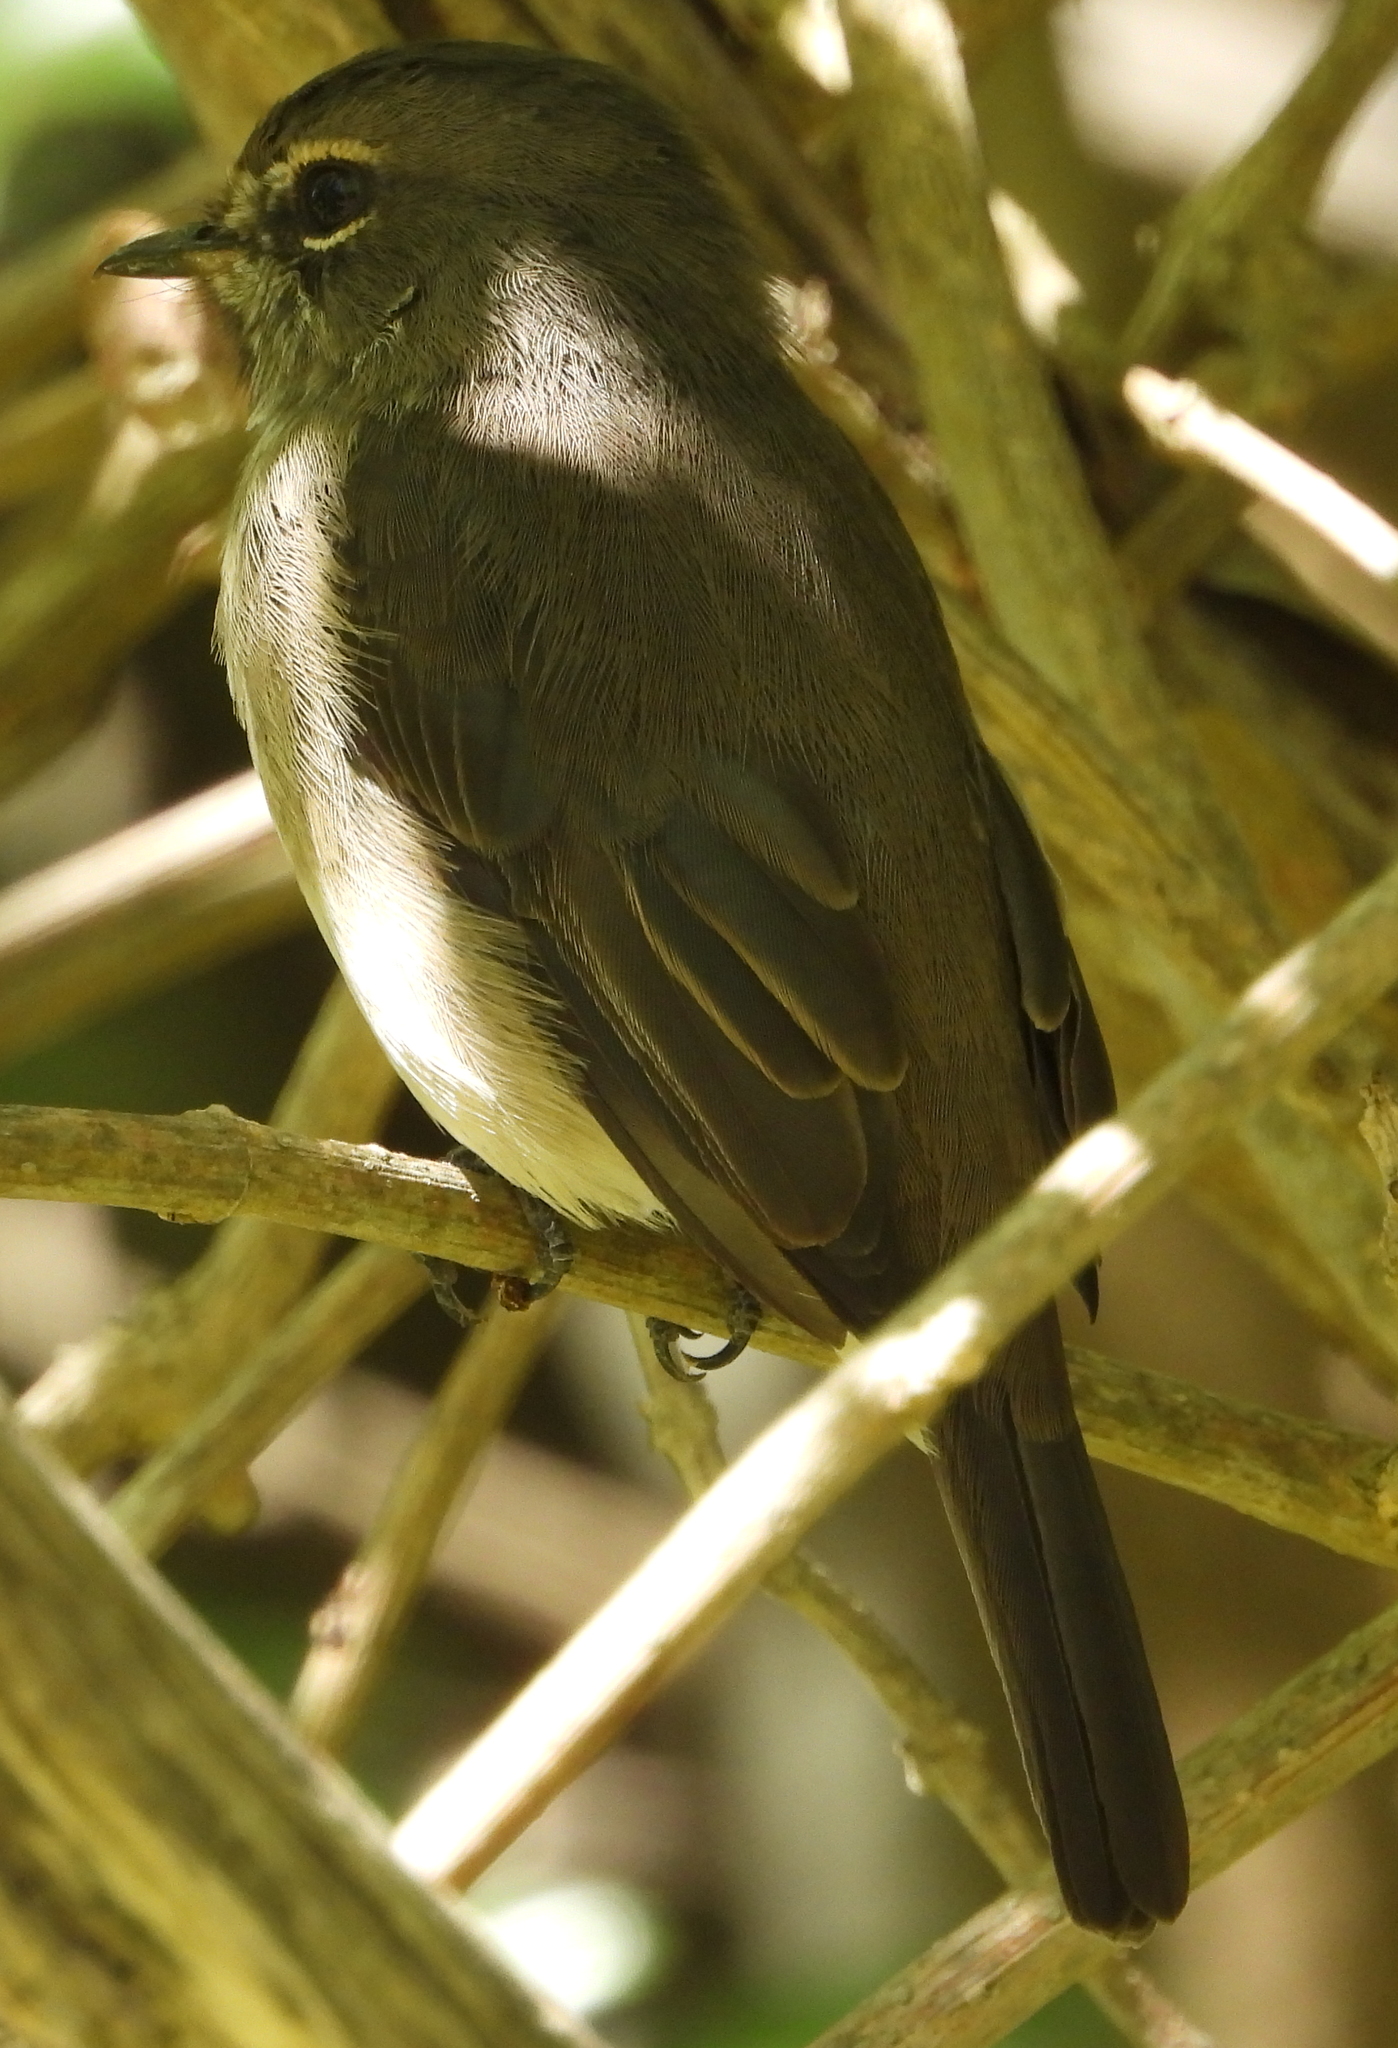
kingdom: Animalia
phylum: Chordata
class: Aves
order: Passeriformes
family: Muscicapidae
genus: Muscicapa
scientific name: Muscicapa adusta
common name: African dusky flycatcher
